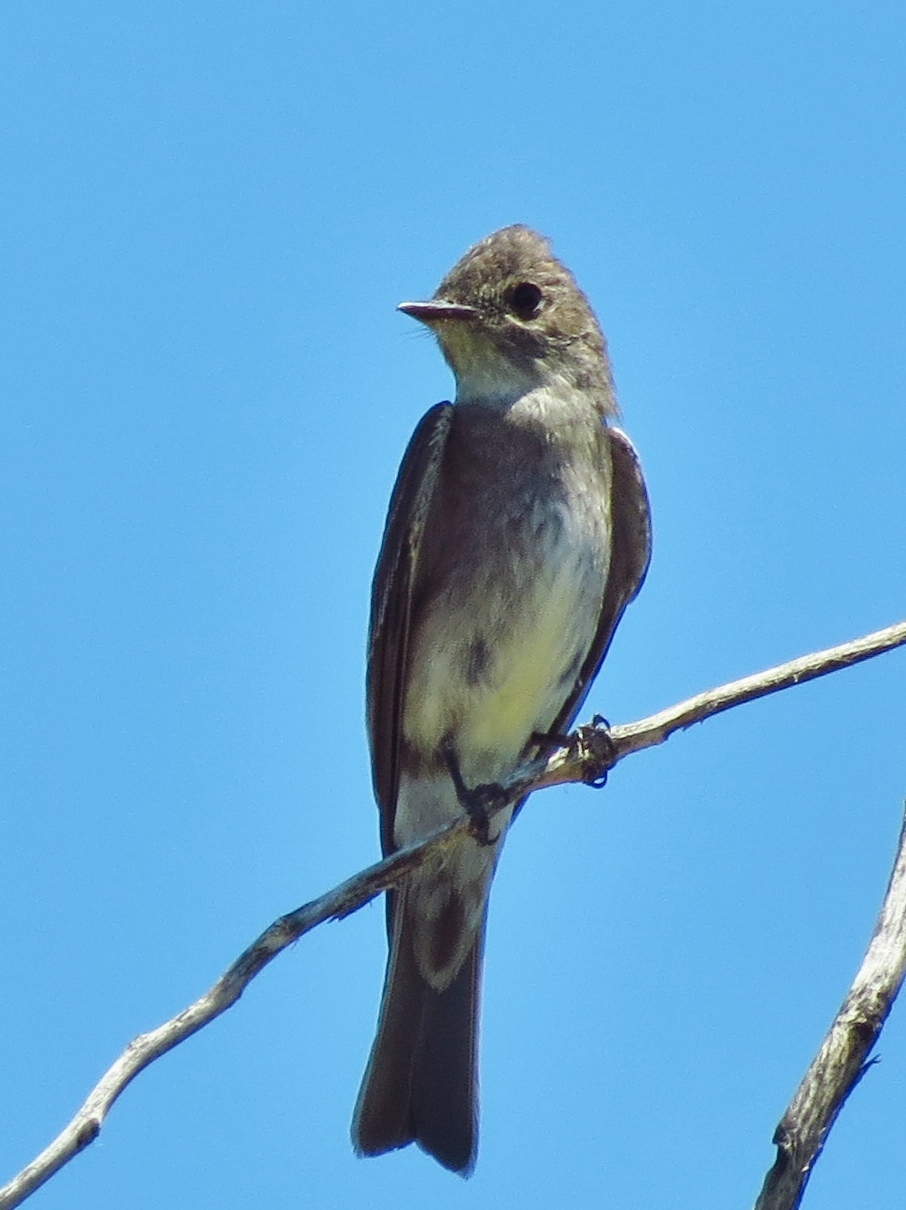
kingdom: Animalia
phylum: Chordata
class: Aves
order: Passeriformes
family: Tyrannidae
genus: Contopus
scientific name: Contopus sordidulus
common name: Western wood-pewee
